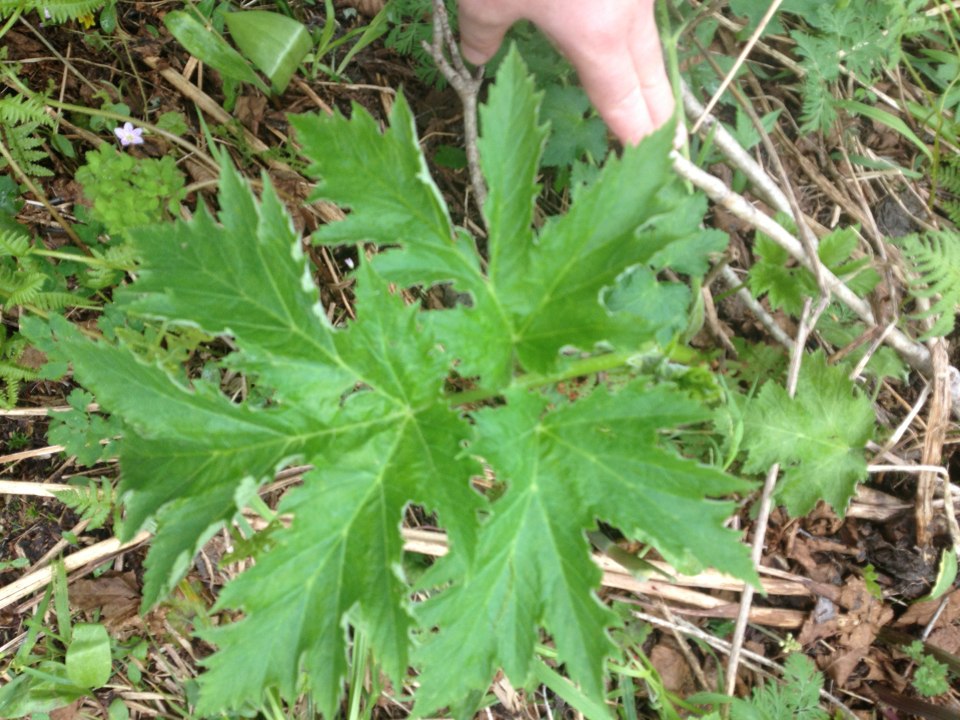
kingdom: Plantae
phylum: Tracheophyta
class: Magnoliopsida
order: Apiales
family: Apiaceae
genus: Heracleum
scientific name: Heracleum maximum
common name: American cow parsnip
